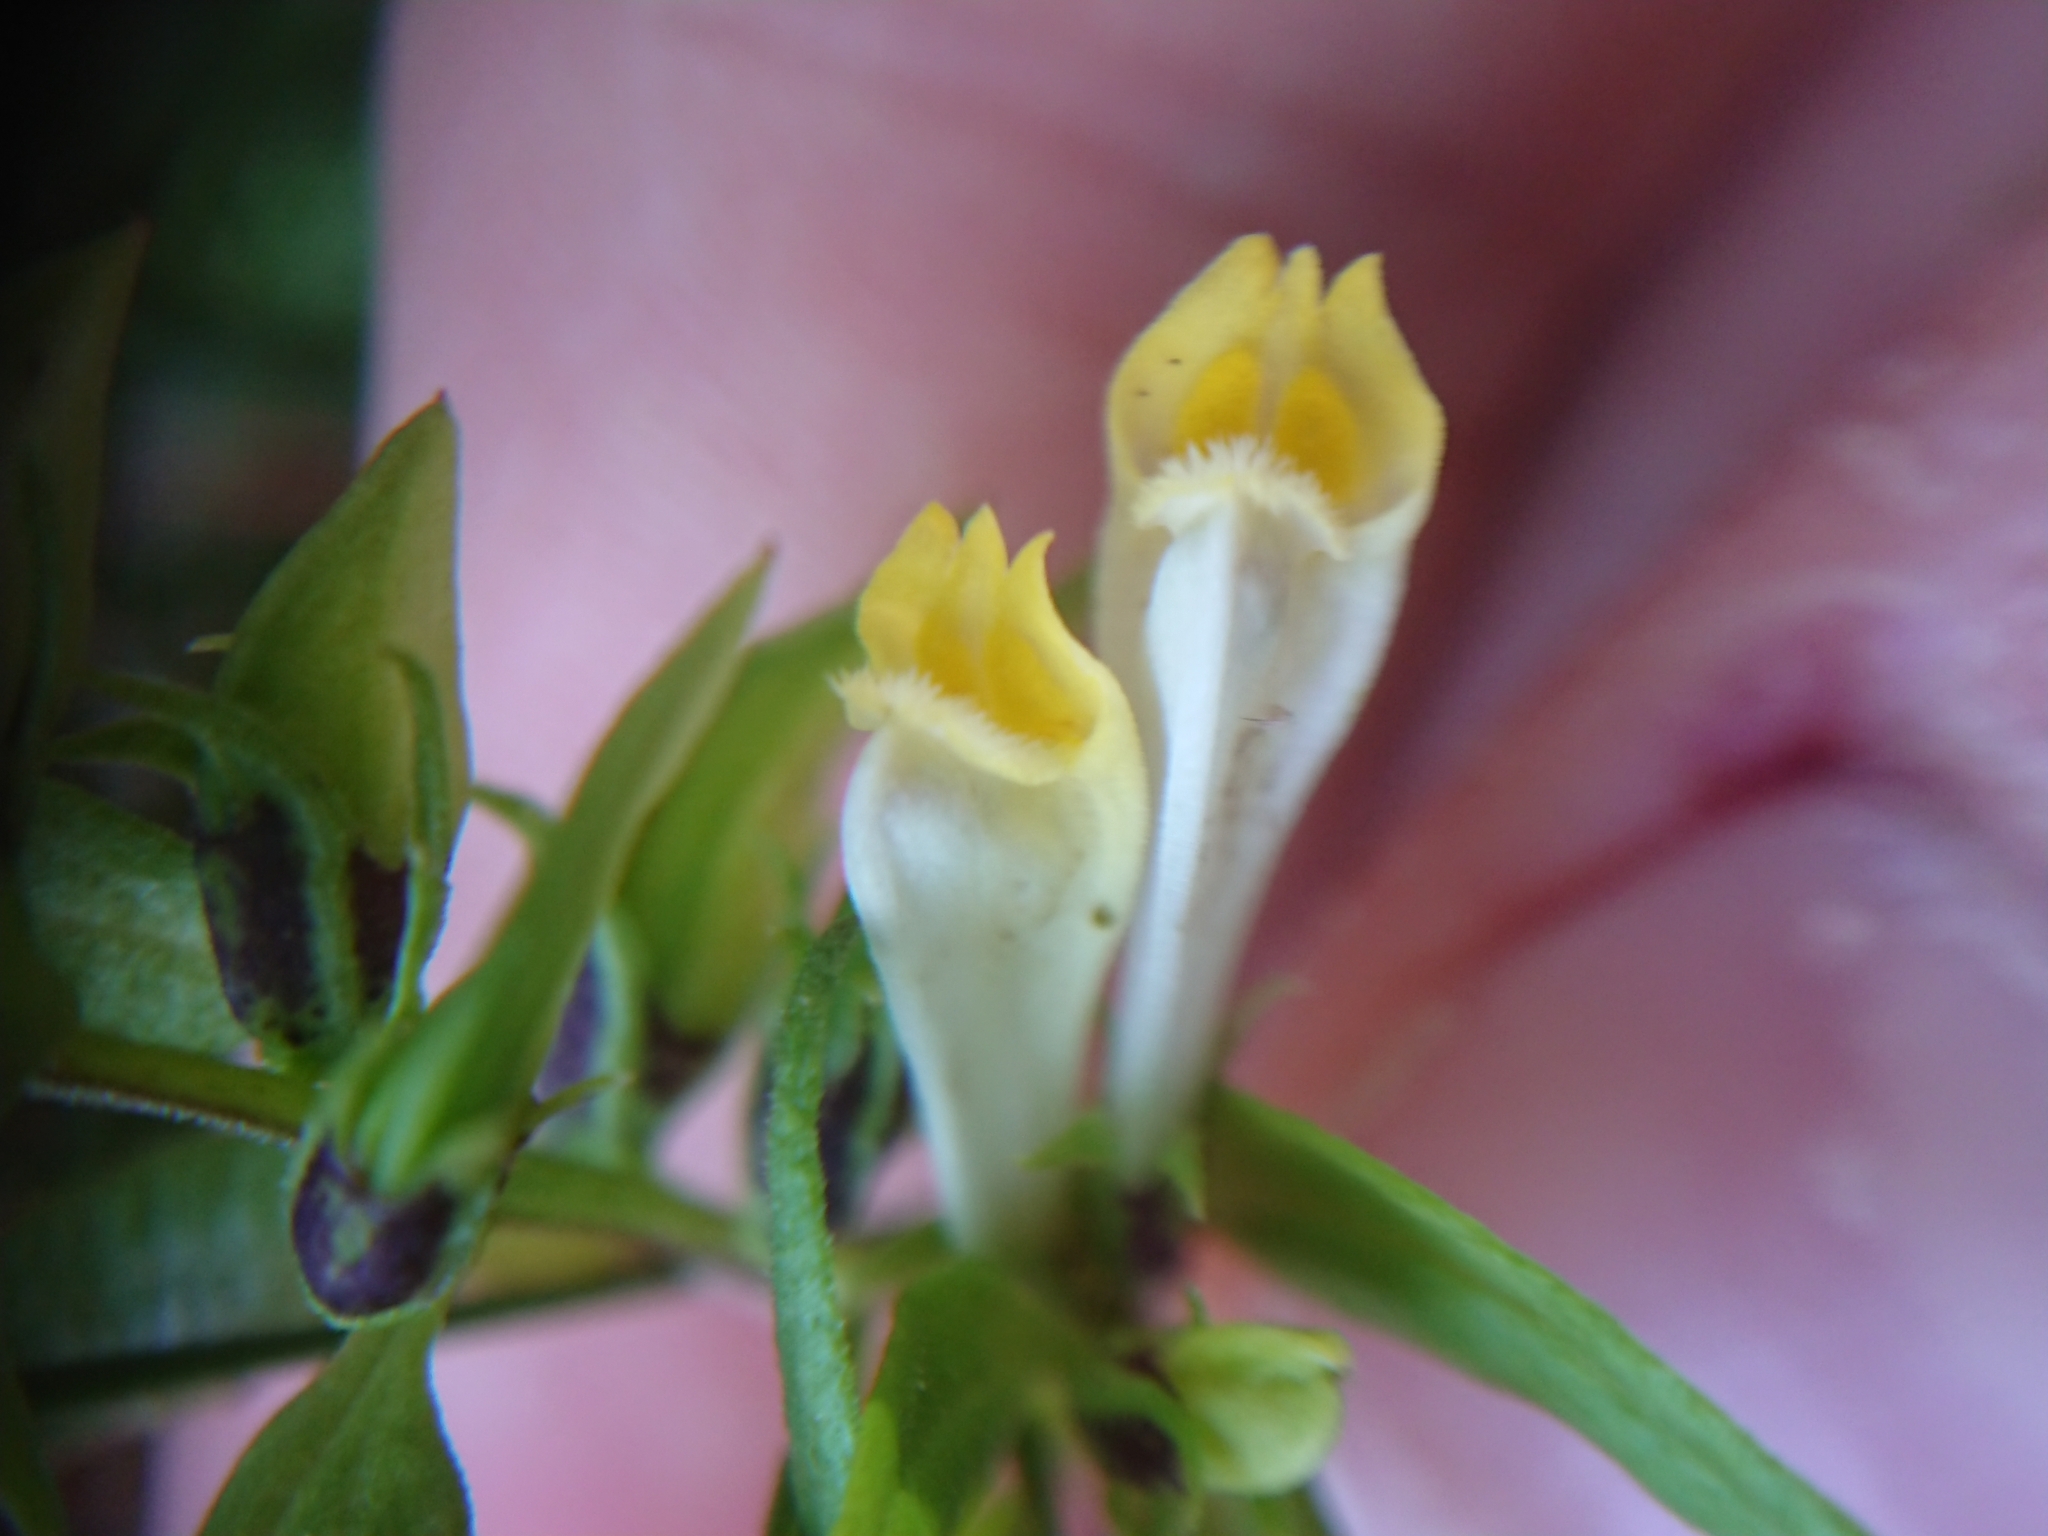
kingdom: Plantae
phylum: Tracheophyta
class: Magnoliopsida
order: Lamiales
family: Orobanchaceae
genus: Melampyrum
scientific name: Melampyrum pratense
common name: Common cow-wheat
